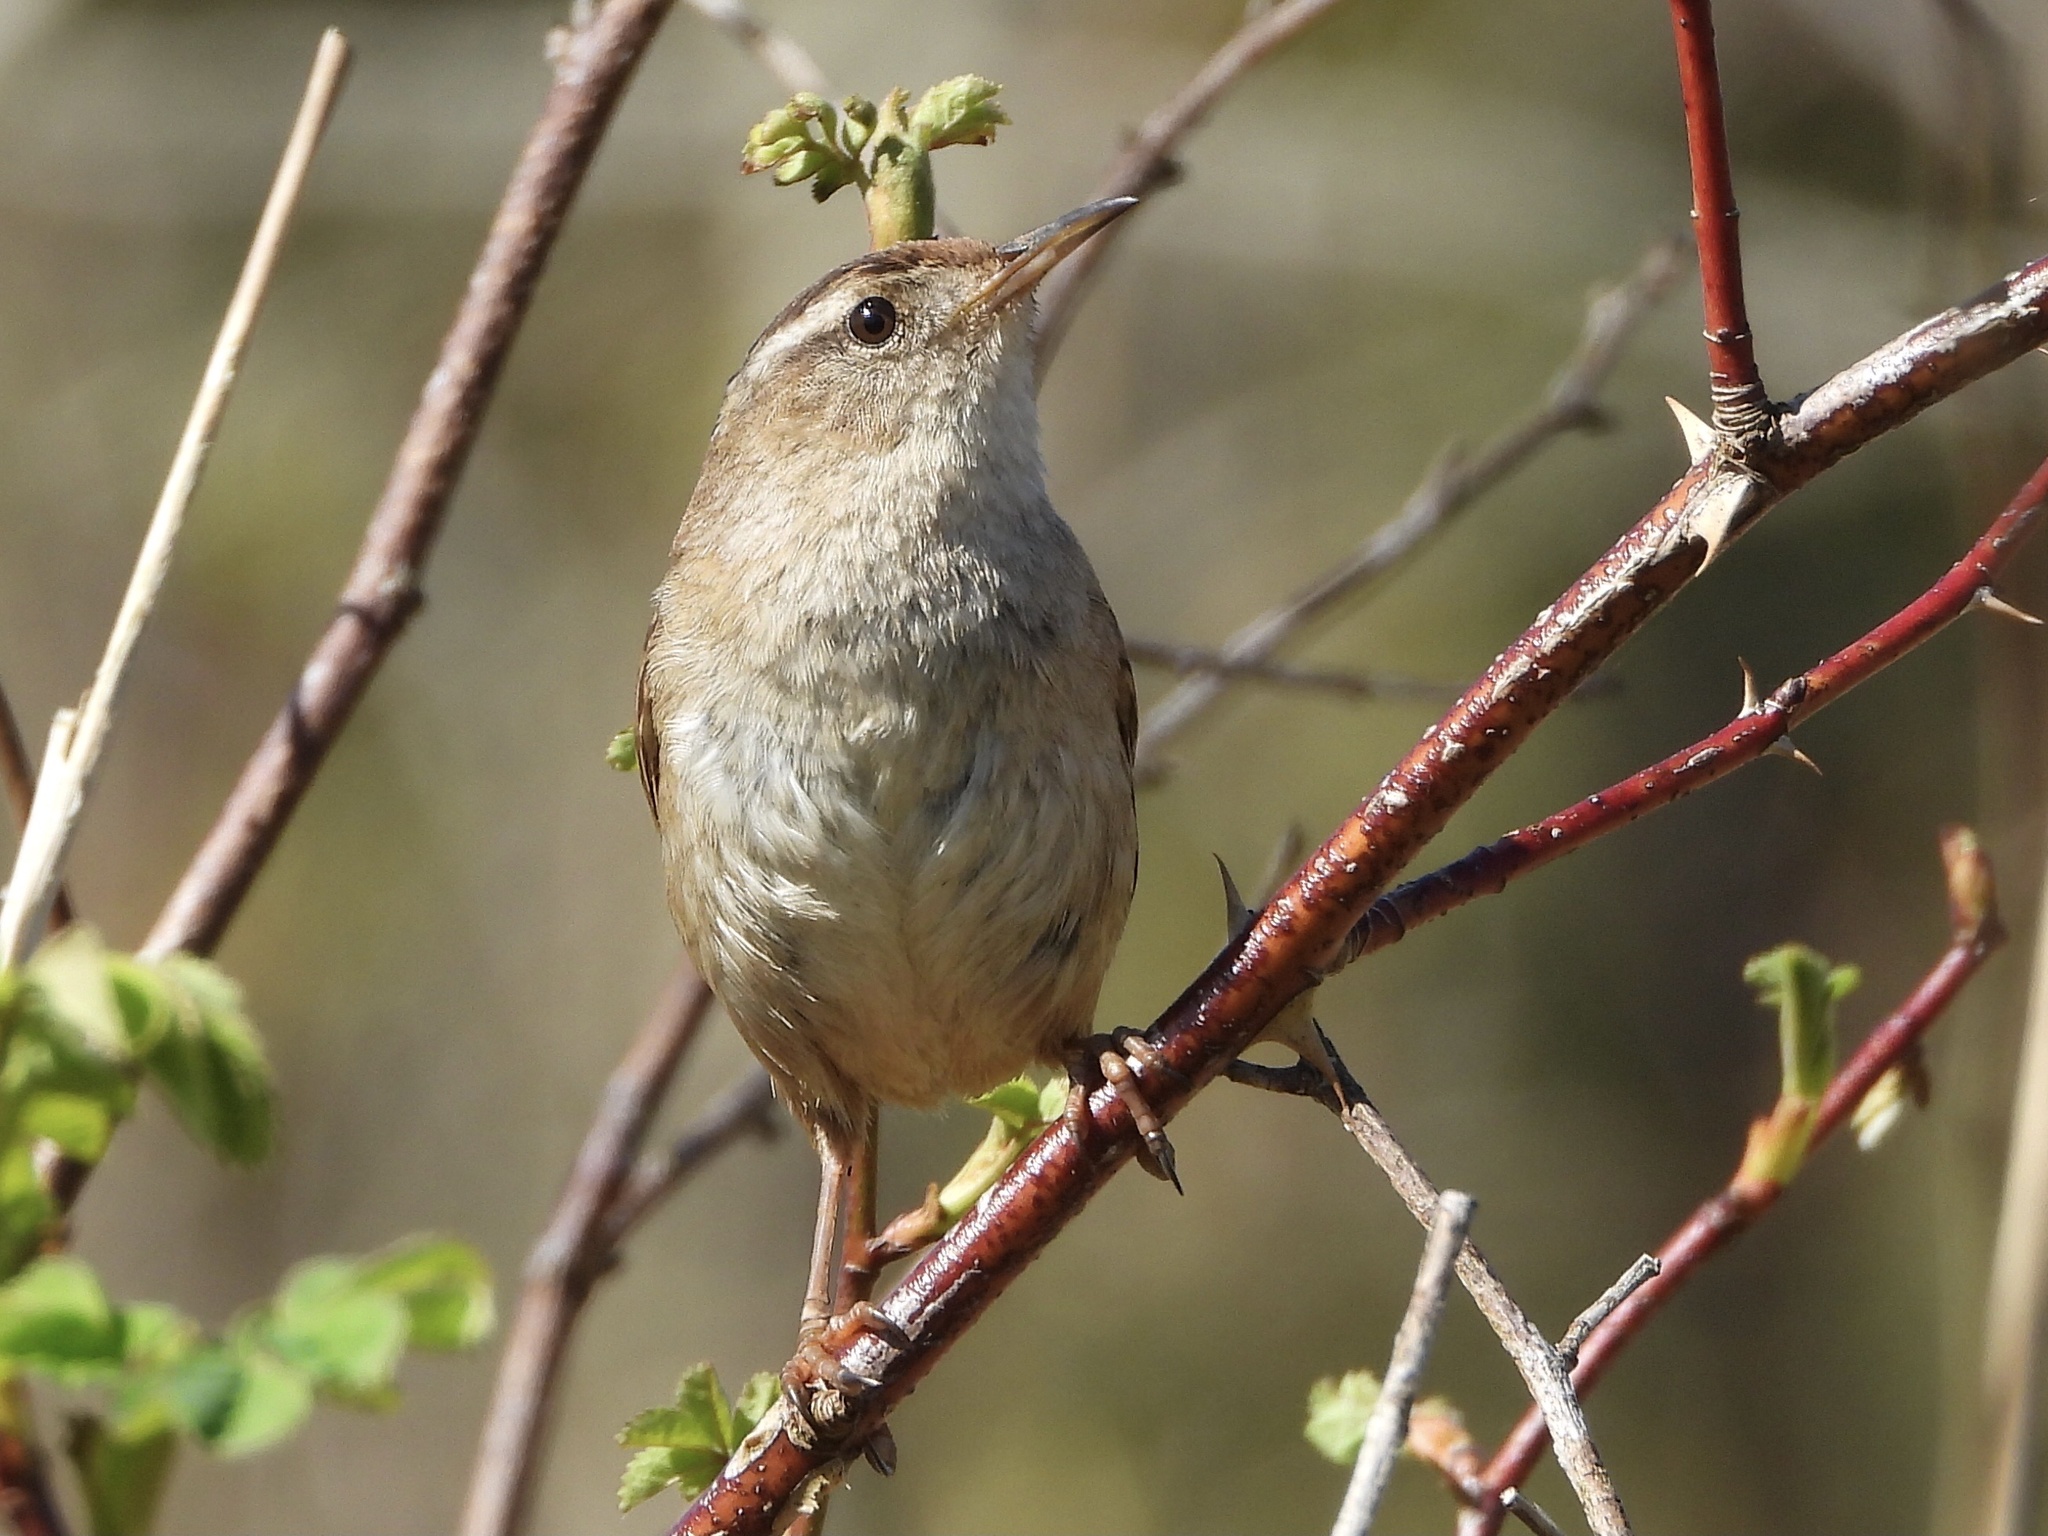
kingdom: Animalia
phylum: Chordata
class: Aves
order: Passeriformes
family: Troglodytidae
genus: Cistothorus
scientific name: Cistothorus palustris
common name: Marsh wren
